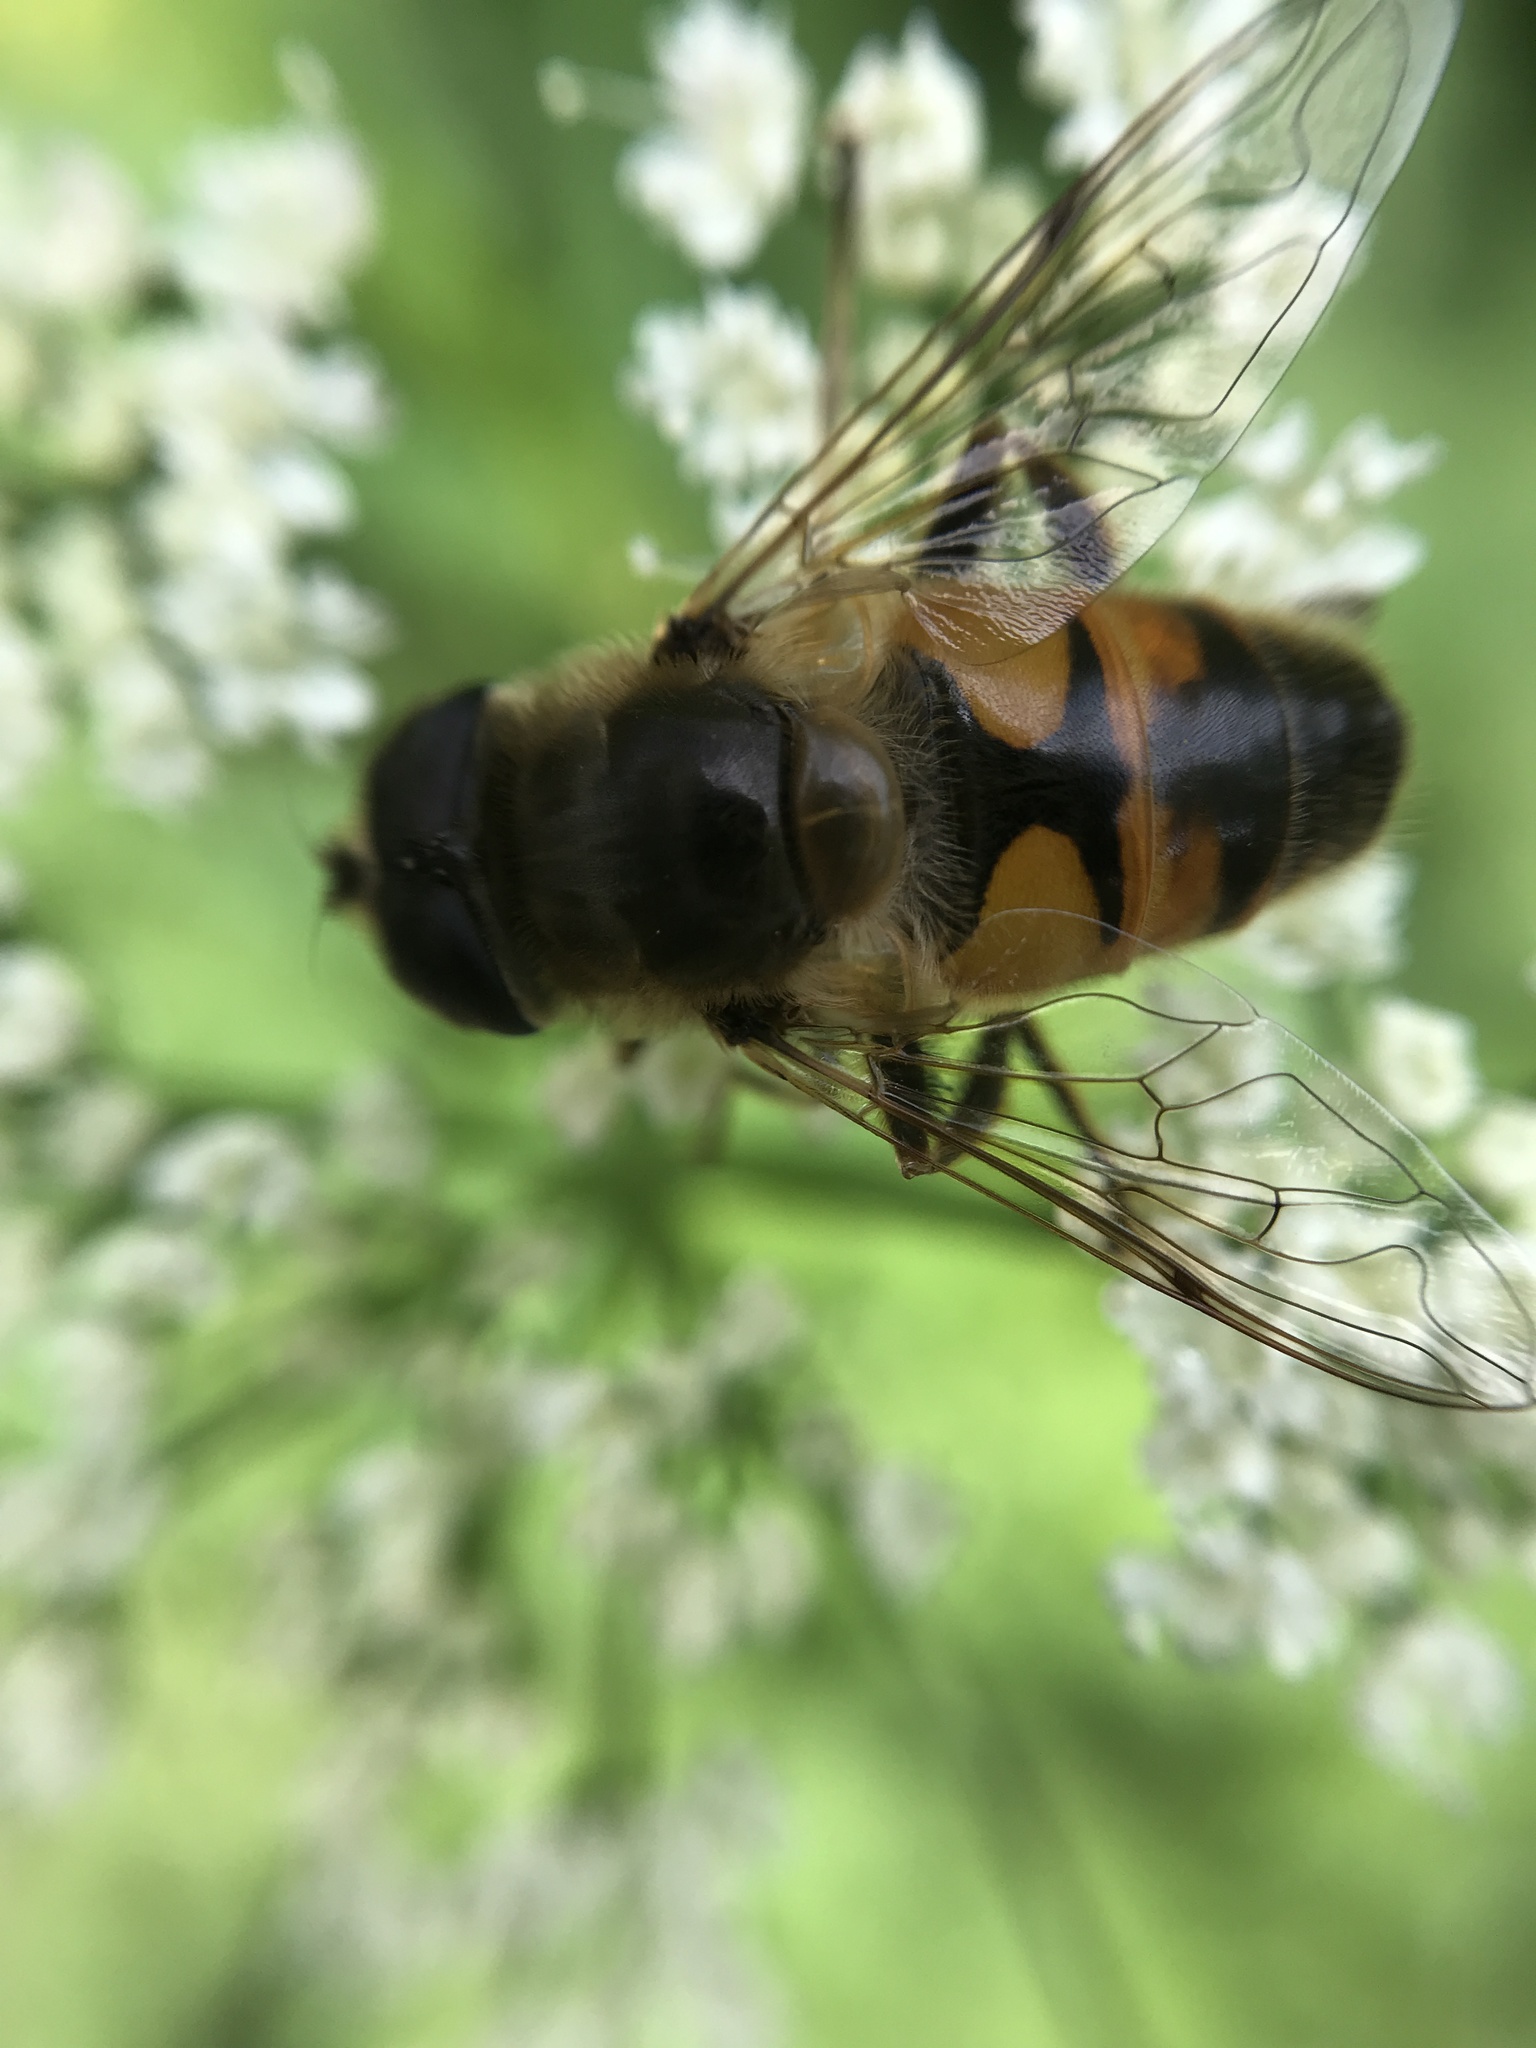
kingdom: Animalia
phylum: Arthropoda
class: Insecta
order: Diptera
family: Syrphidae
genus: Eristalis
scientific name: Eristalis tenax
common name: Drone fly
